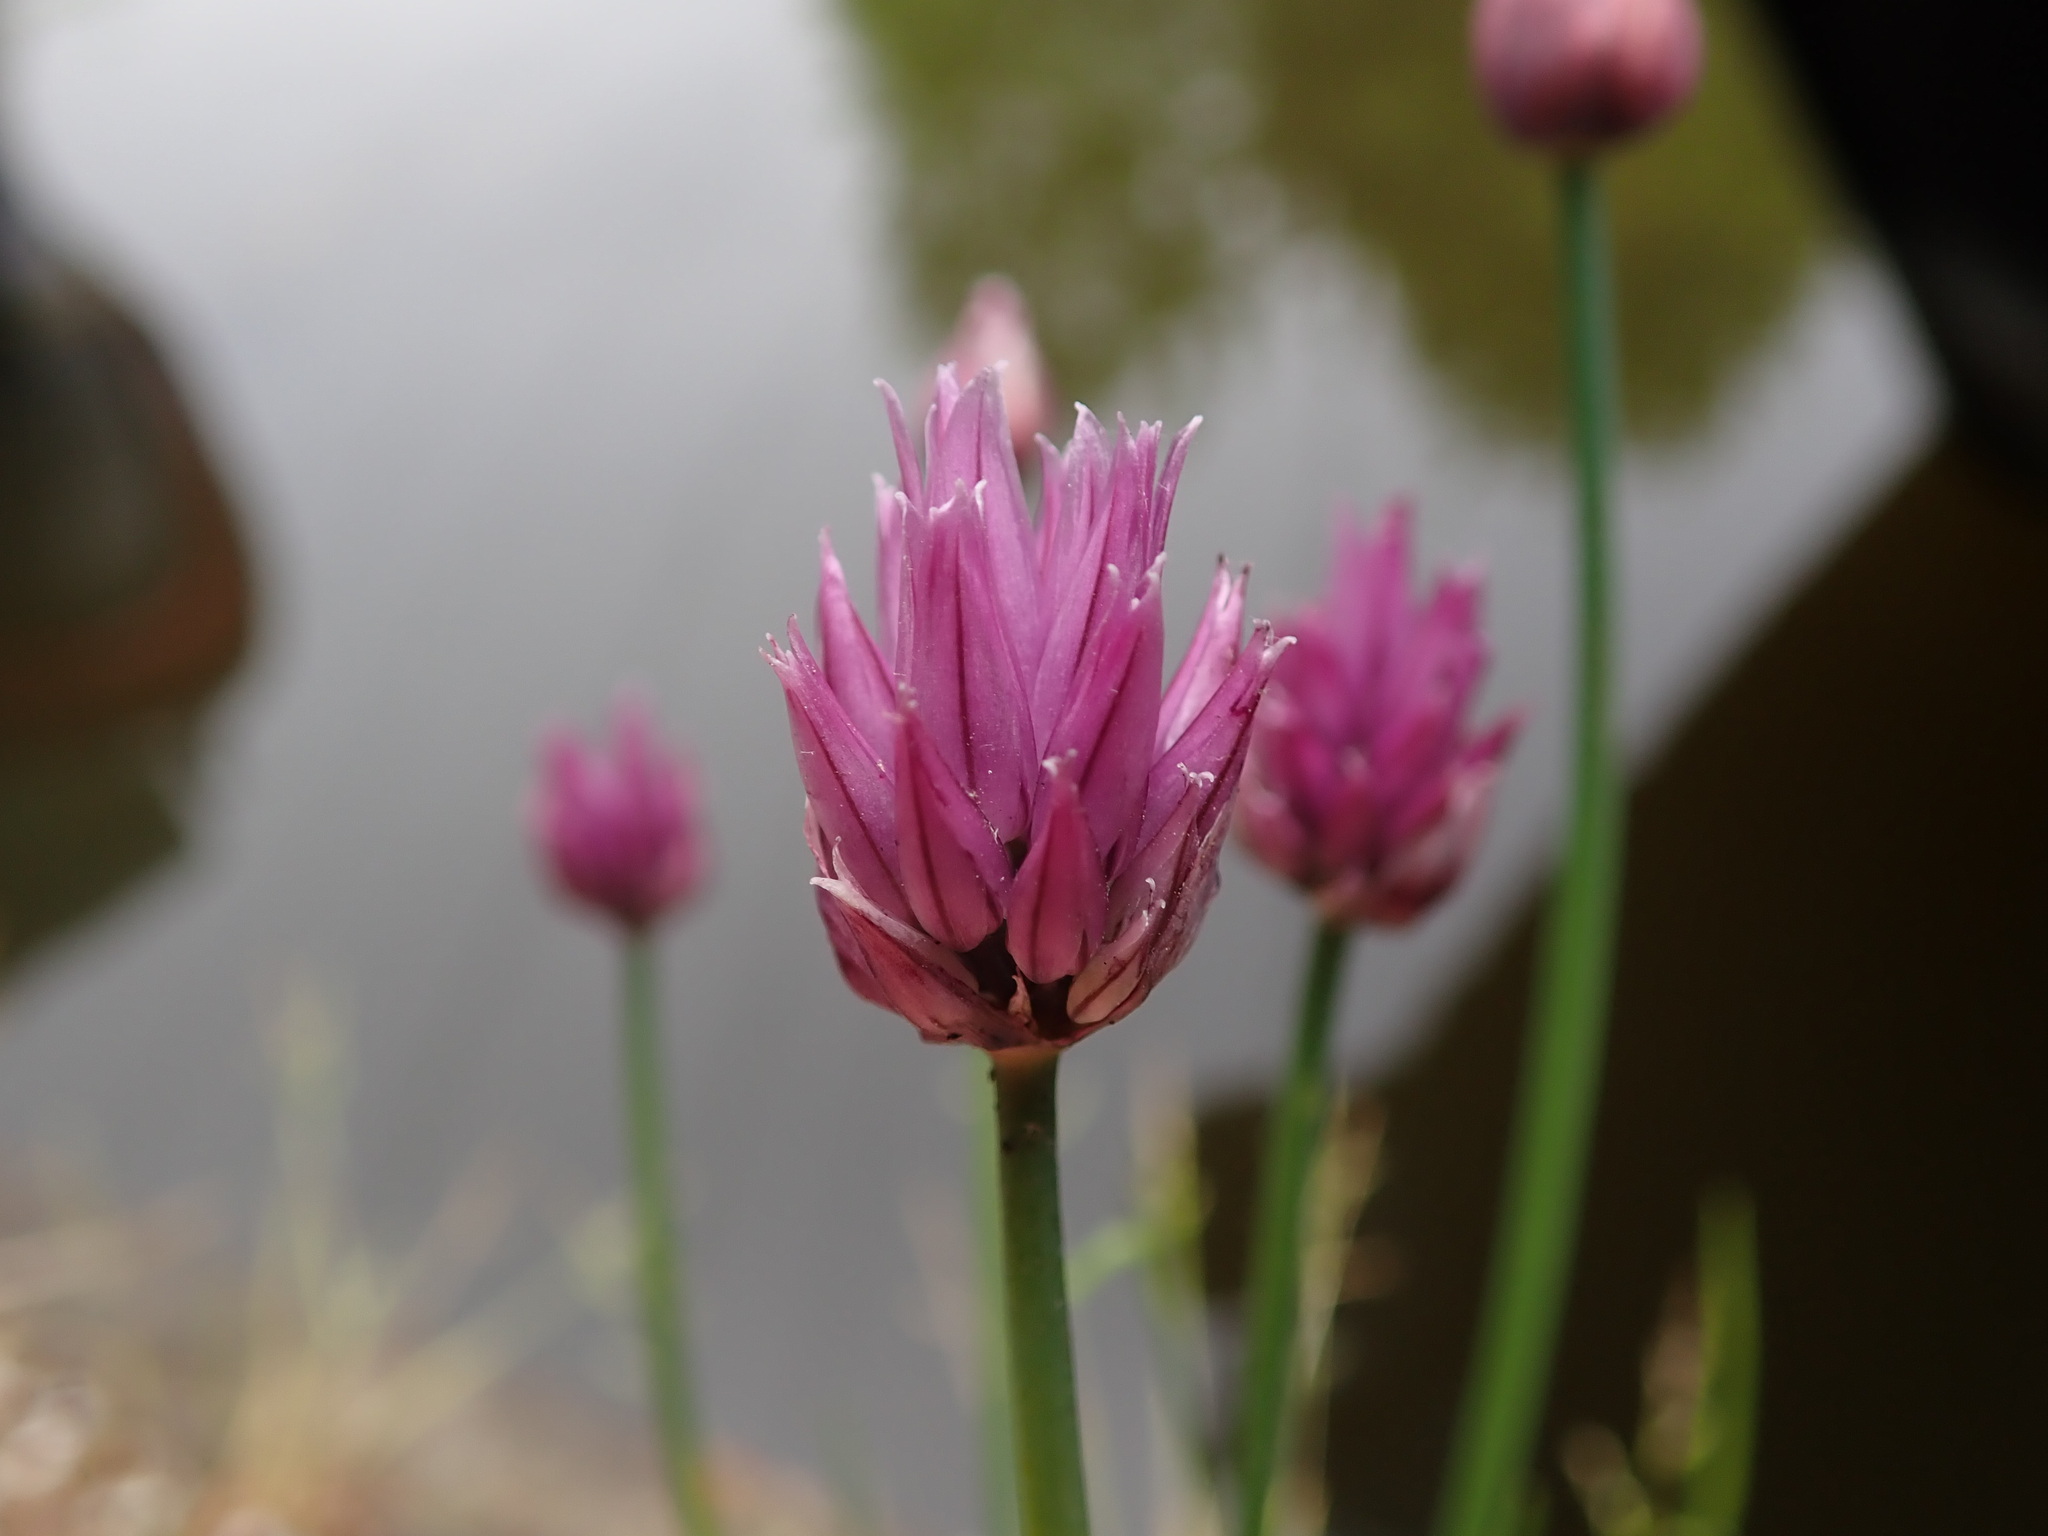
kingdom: Plantae
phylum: Tracheophyta
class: Liliopsida
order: Asparagales
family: Amaryllidaceae
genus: Allium
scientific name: Allium schoenoprasum
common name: Chives
